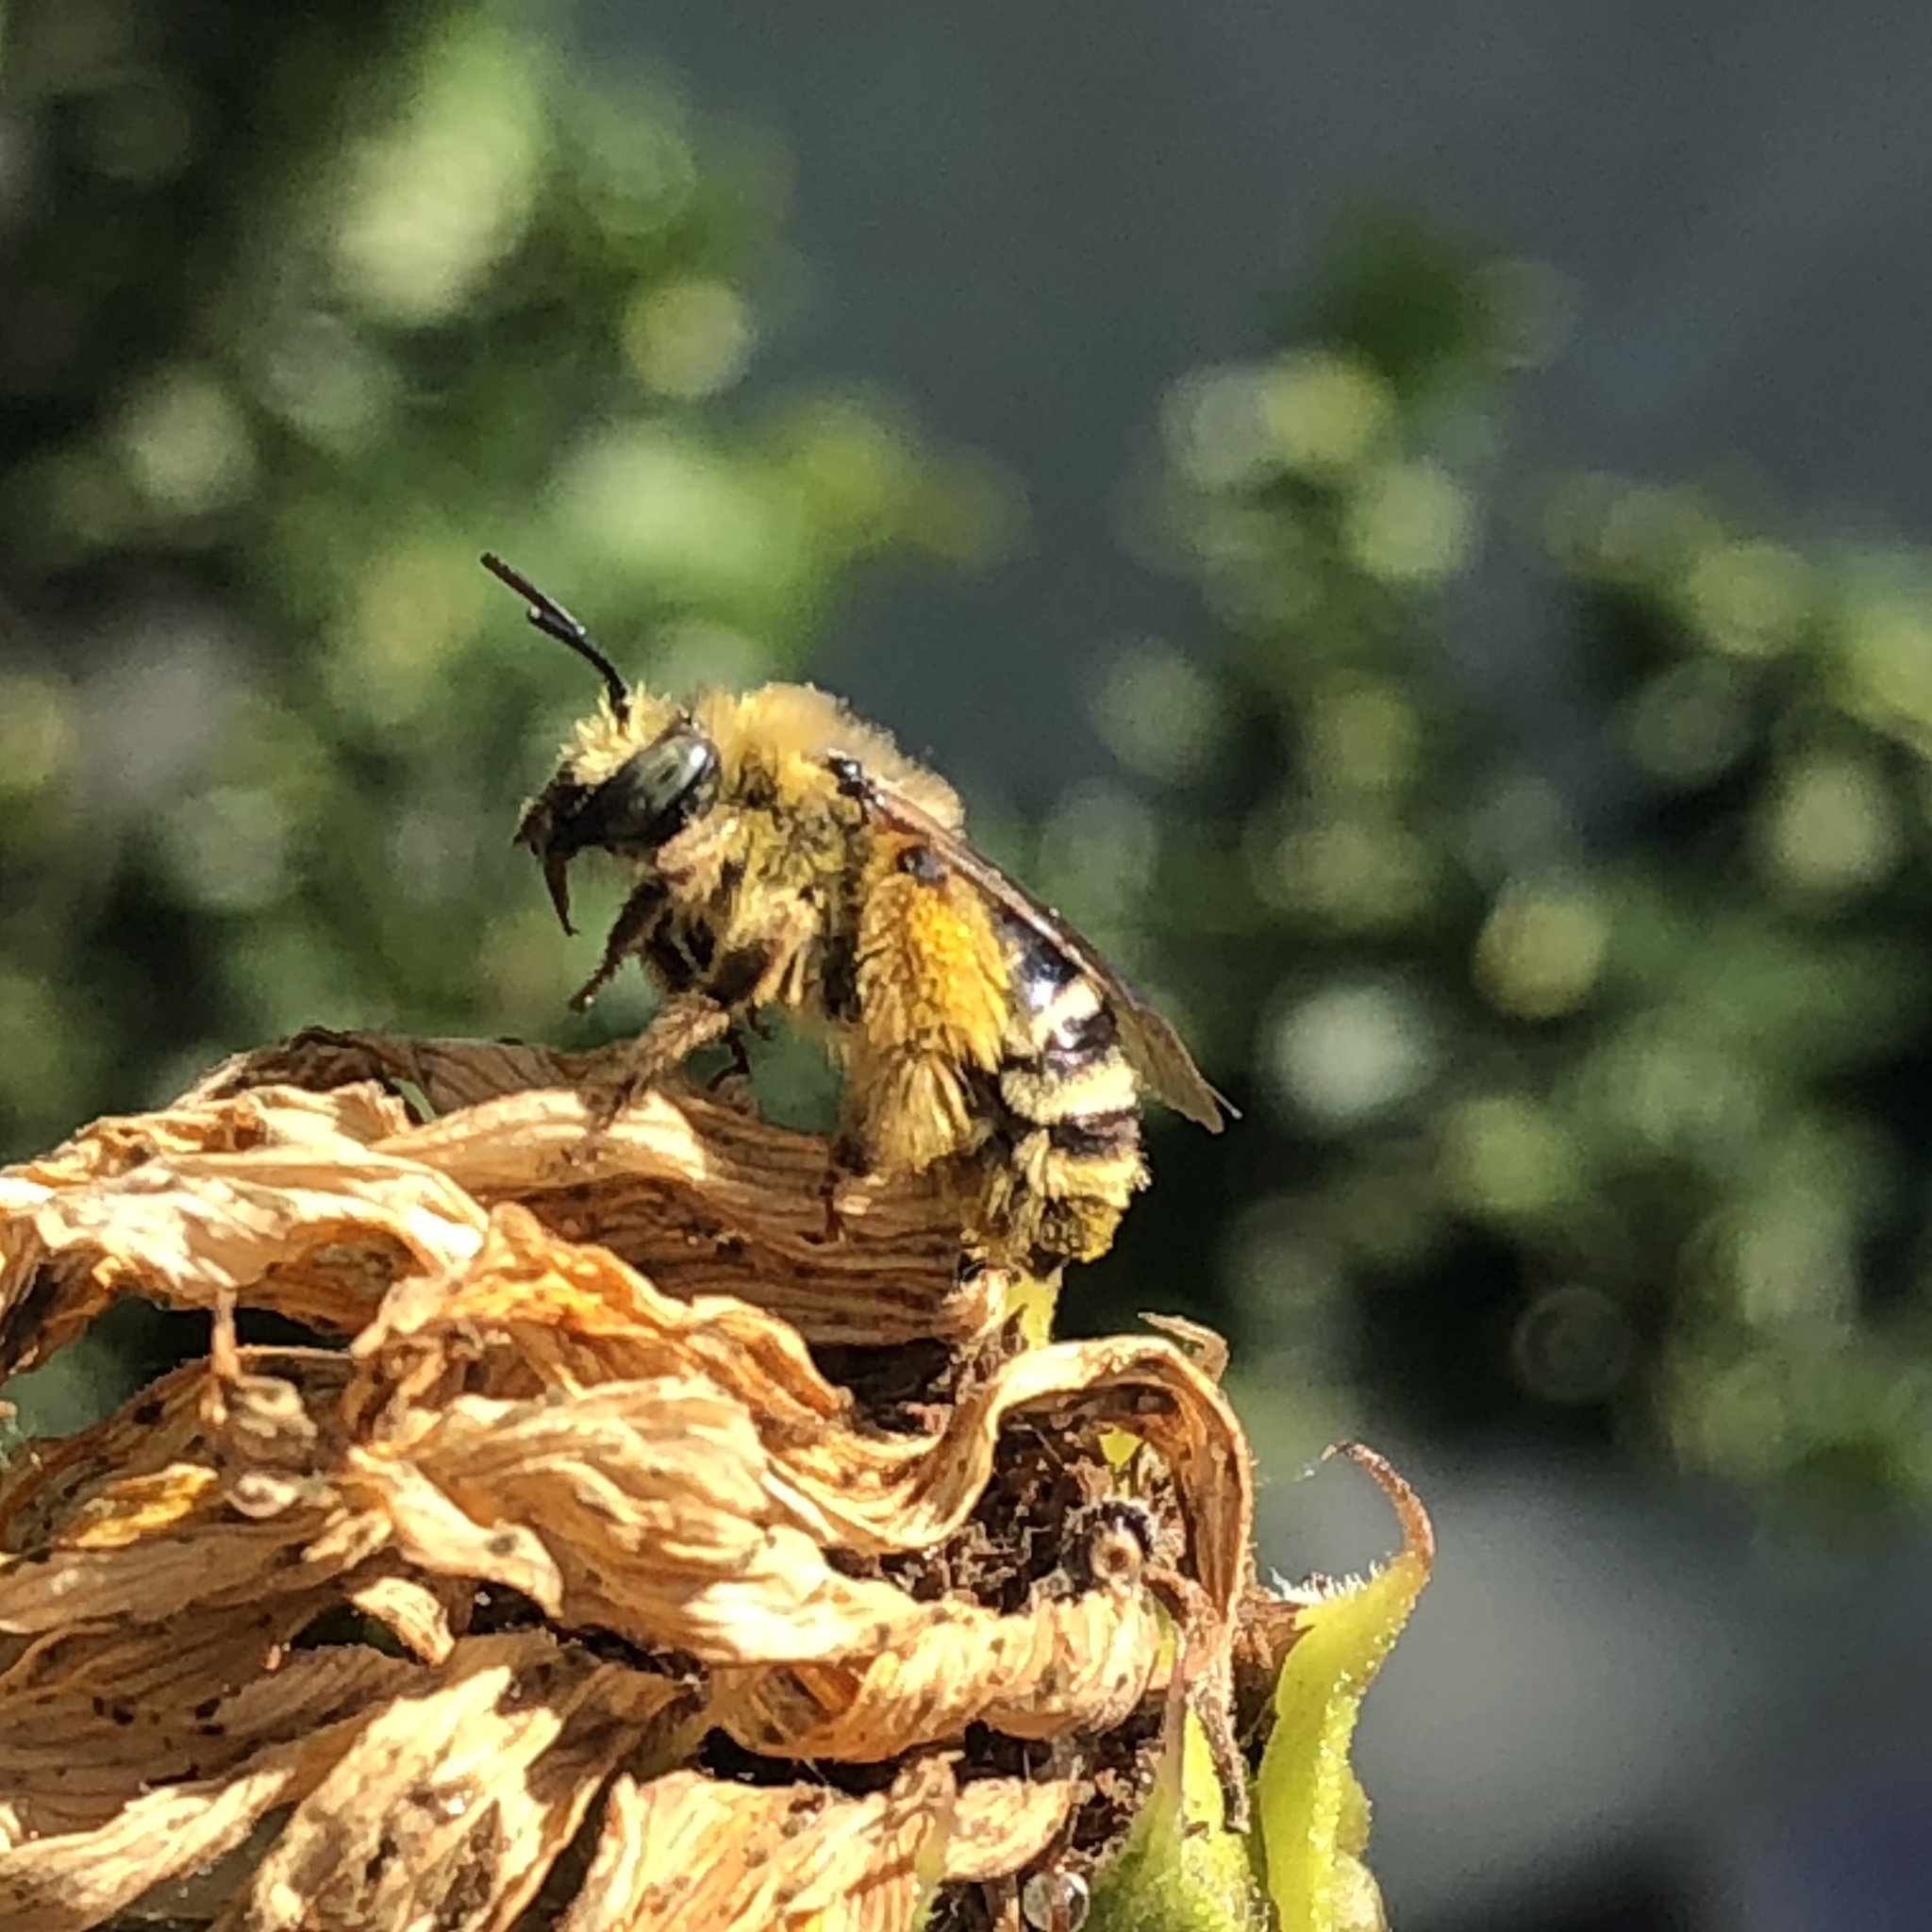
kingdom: Animalia
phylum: Arthropoda
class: Insecta
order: Hymenoptera
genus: Eumelissodes
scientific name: Eumelissodes
